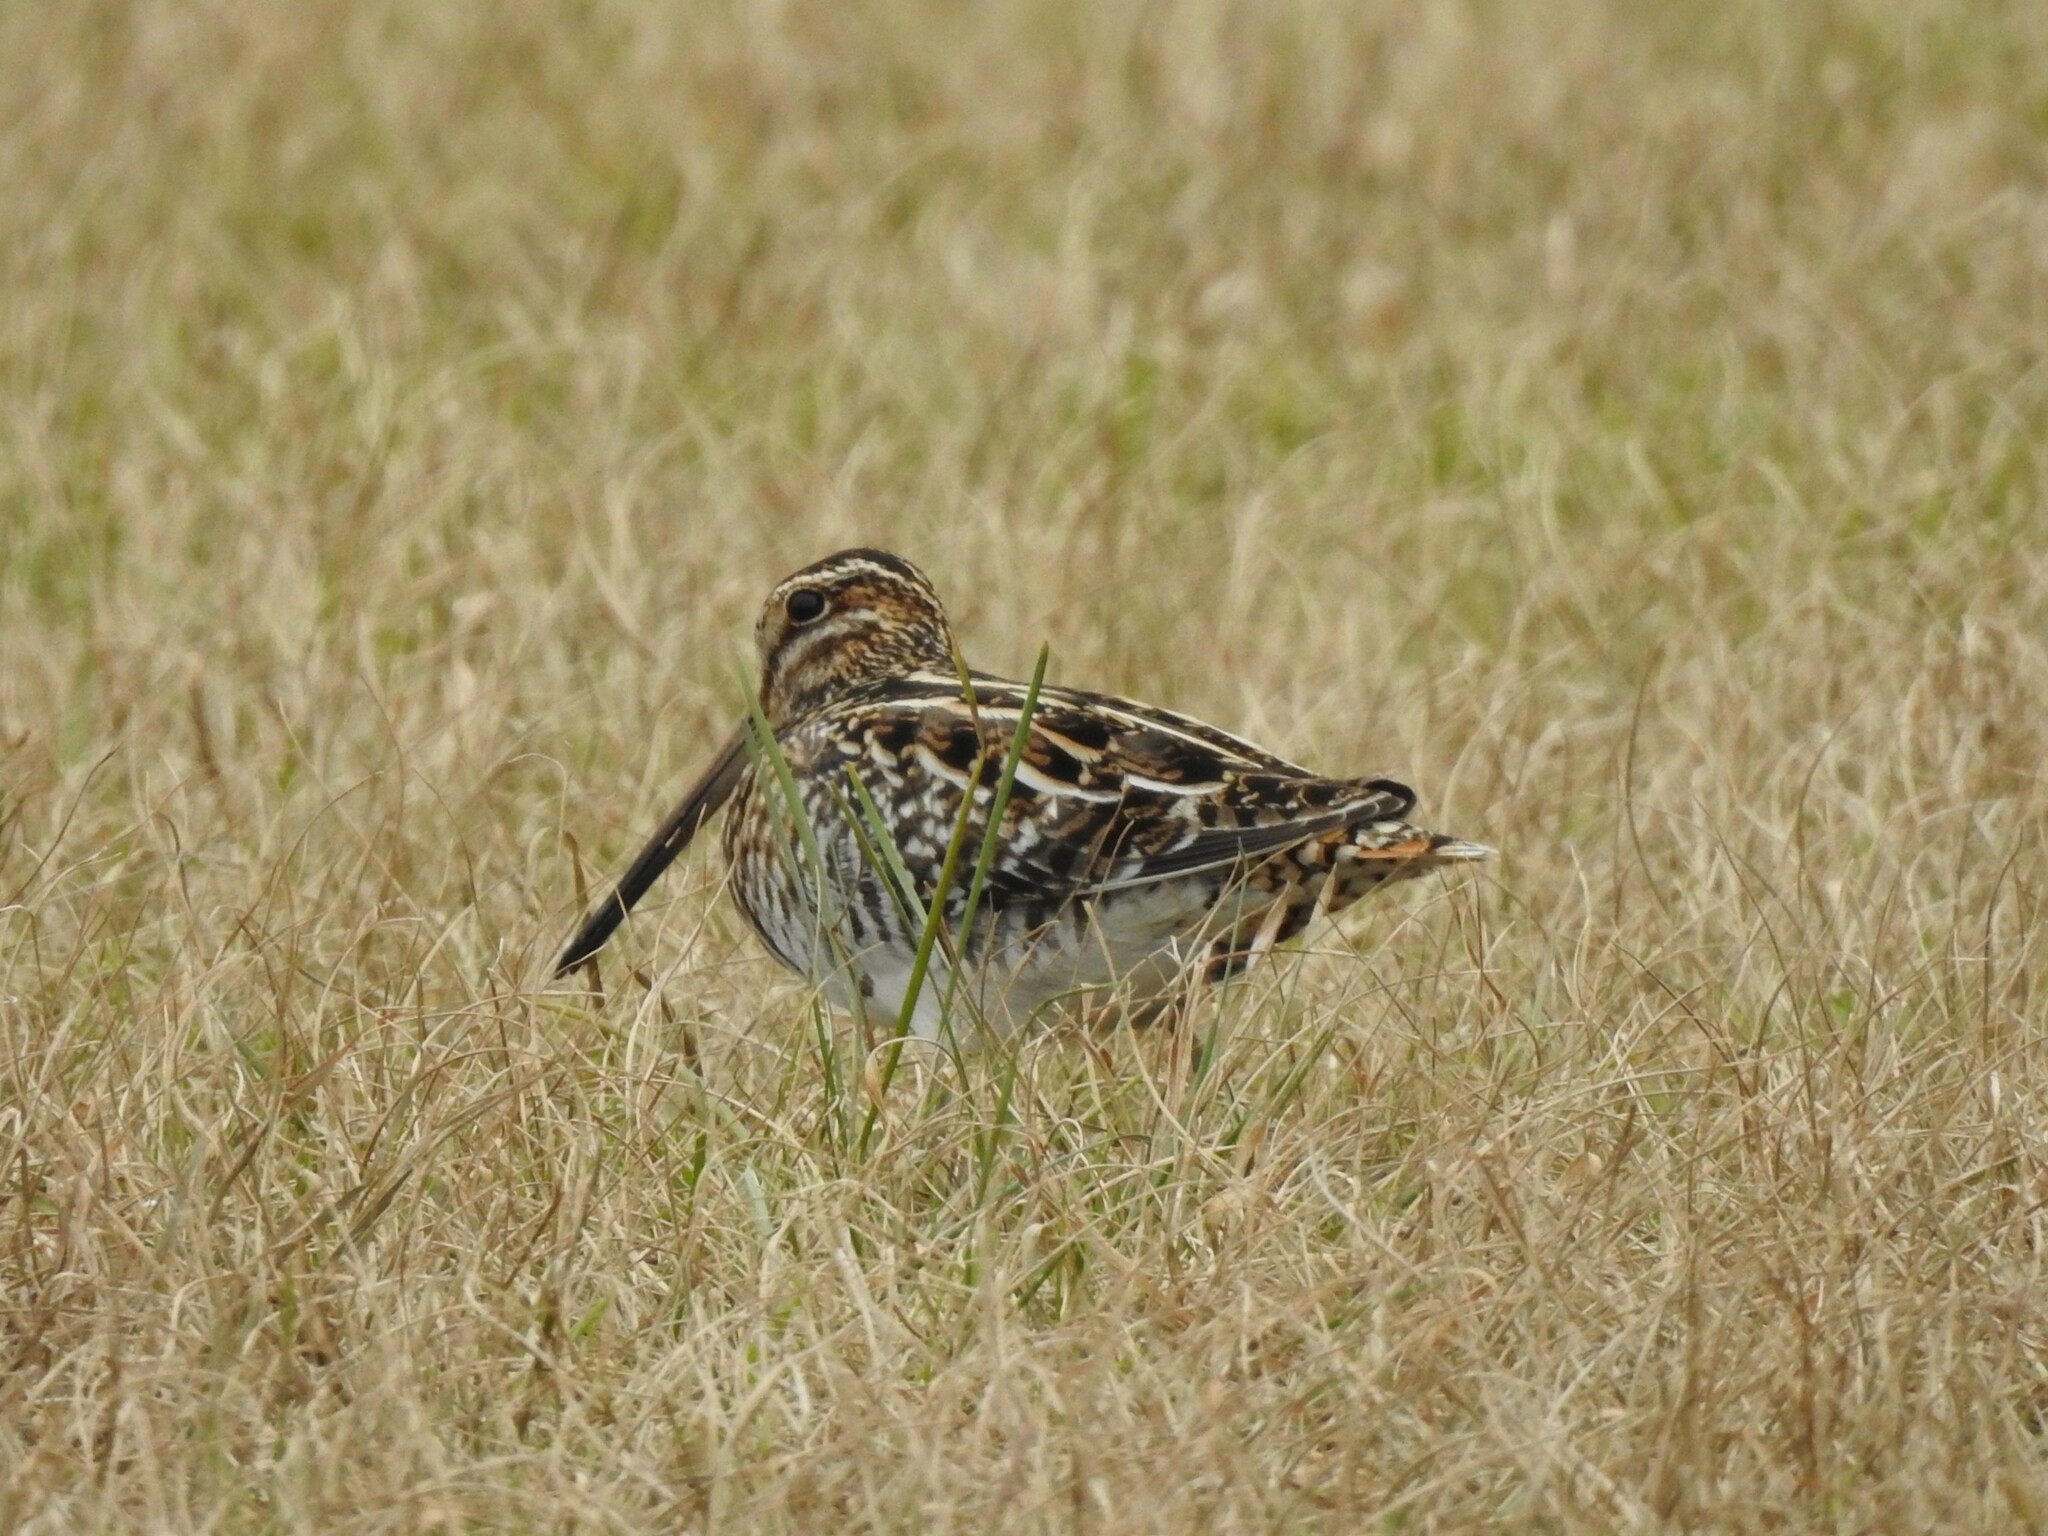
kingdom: Animalia
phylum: Chordata
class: Aves
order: Charadriiformes
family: Scolopacidae
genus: Gallinago
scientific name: Gallinago delicata
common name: Wilson's snipe
